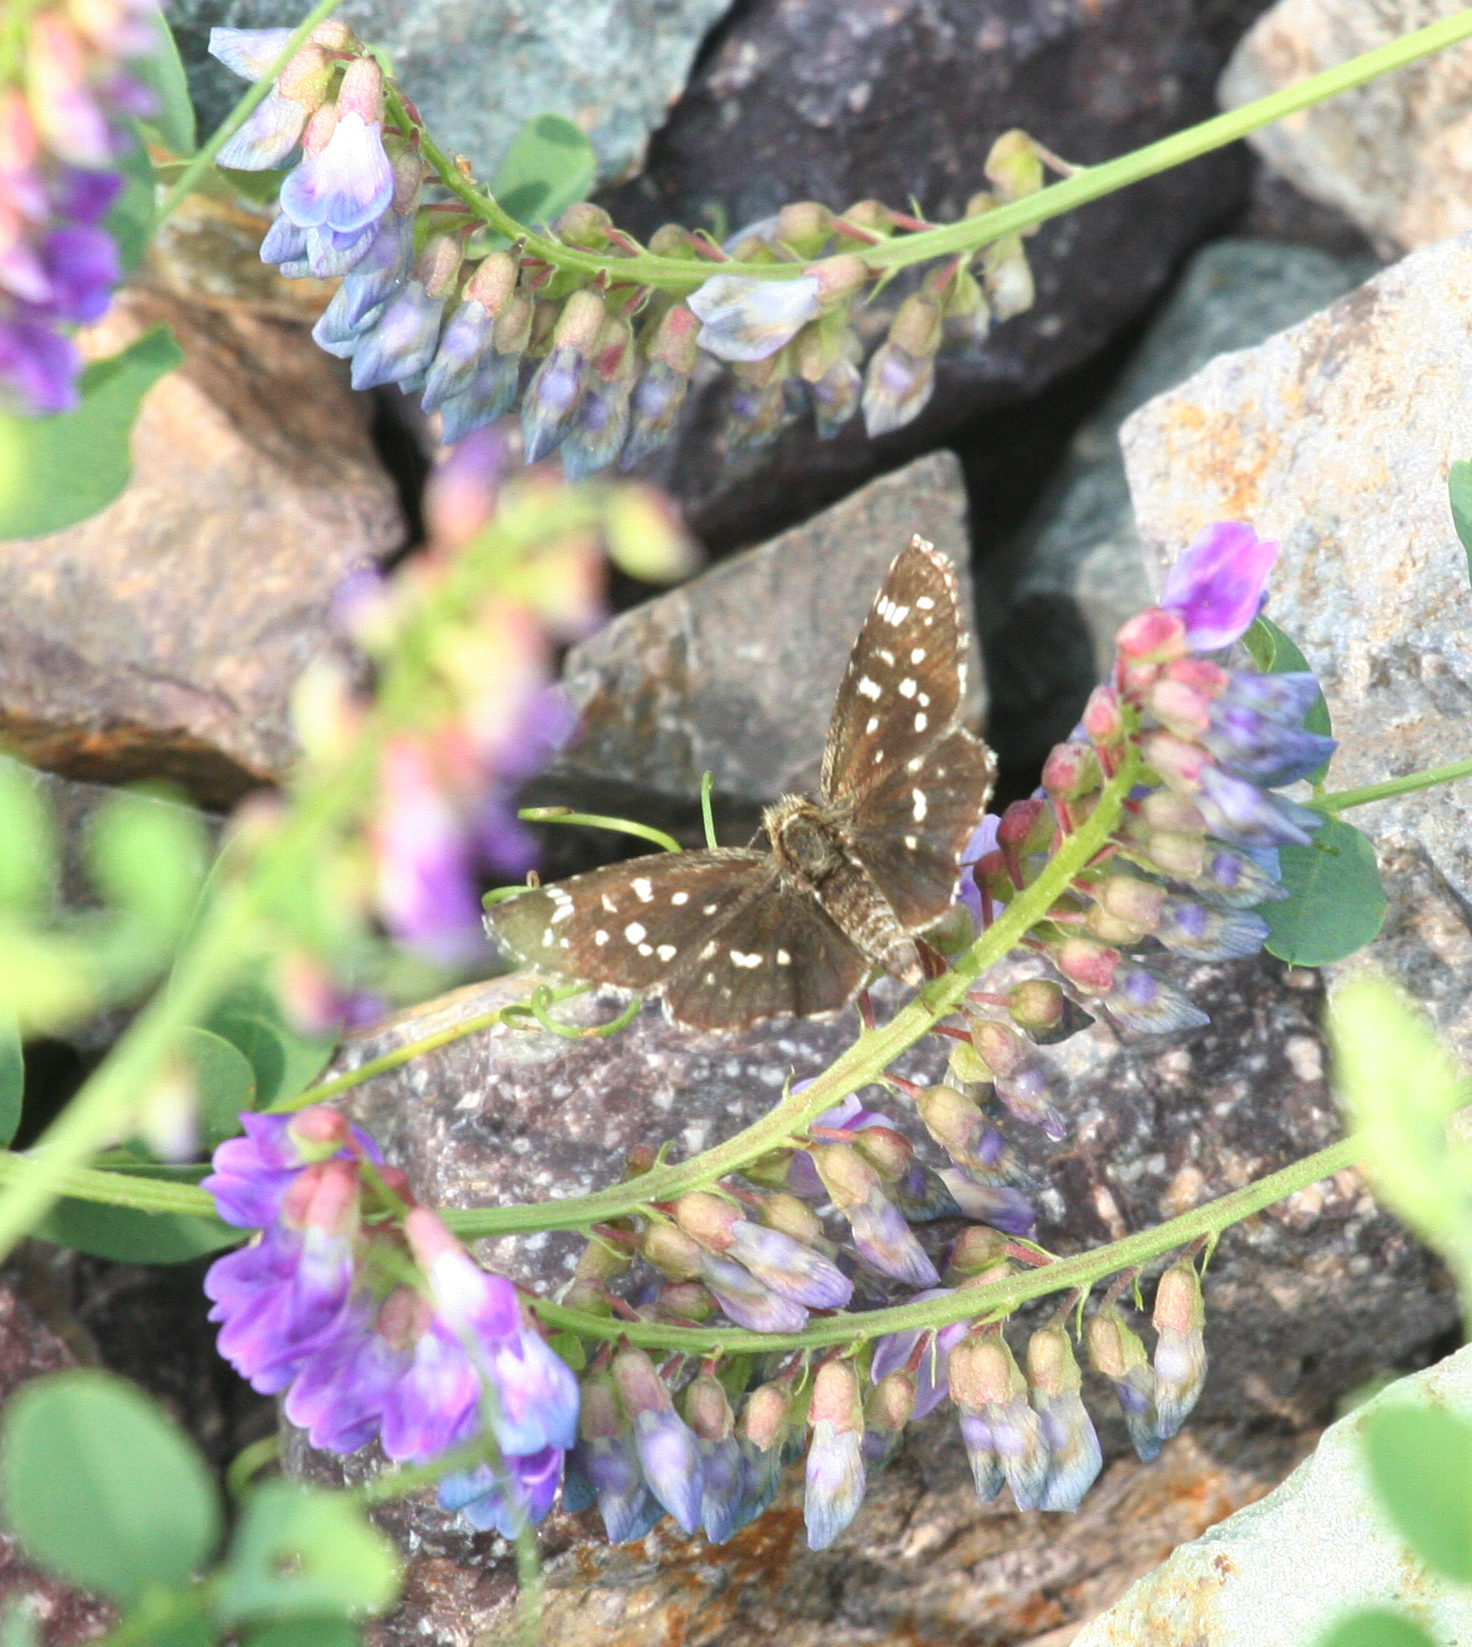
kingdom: Animalia
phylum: Arthropoda
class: Insecta
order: Lepidoptera
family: Hesperiidae
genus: Pyrgus
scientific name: Pyrgus maculatus
